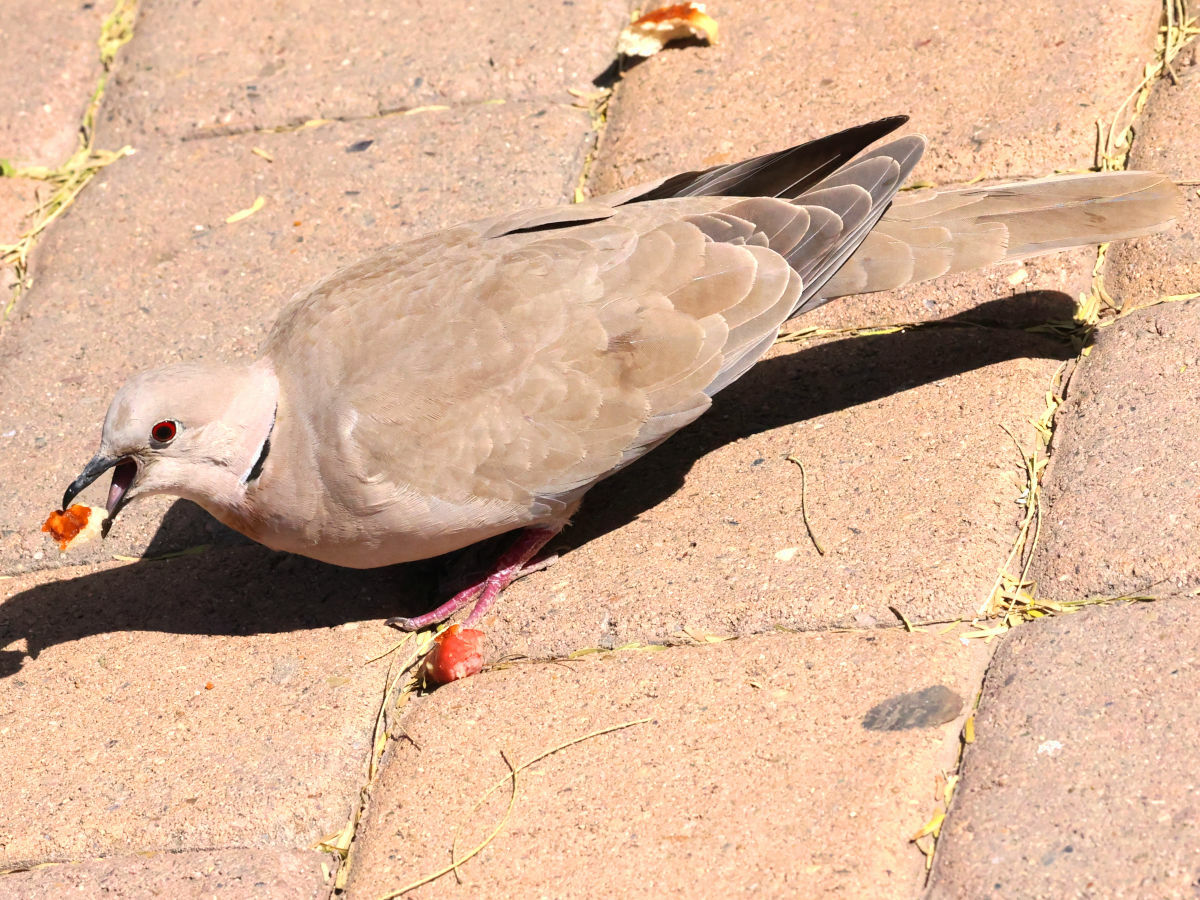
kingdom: Animalia
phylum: Chordata
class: Aves
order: Columbiformes
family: Columbidae
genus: Streptopelia
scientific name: Streptopelia decaocto
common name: Eurasian collared dove
